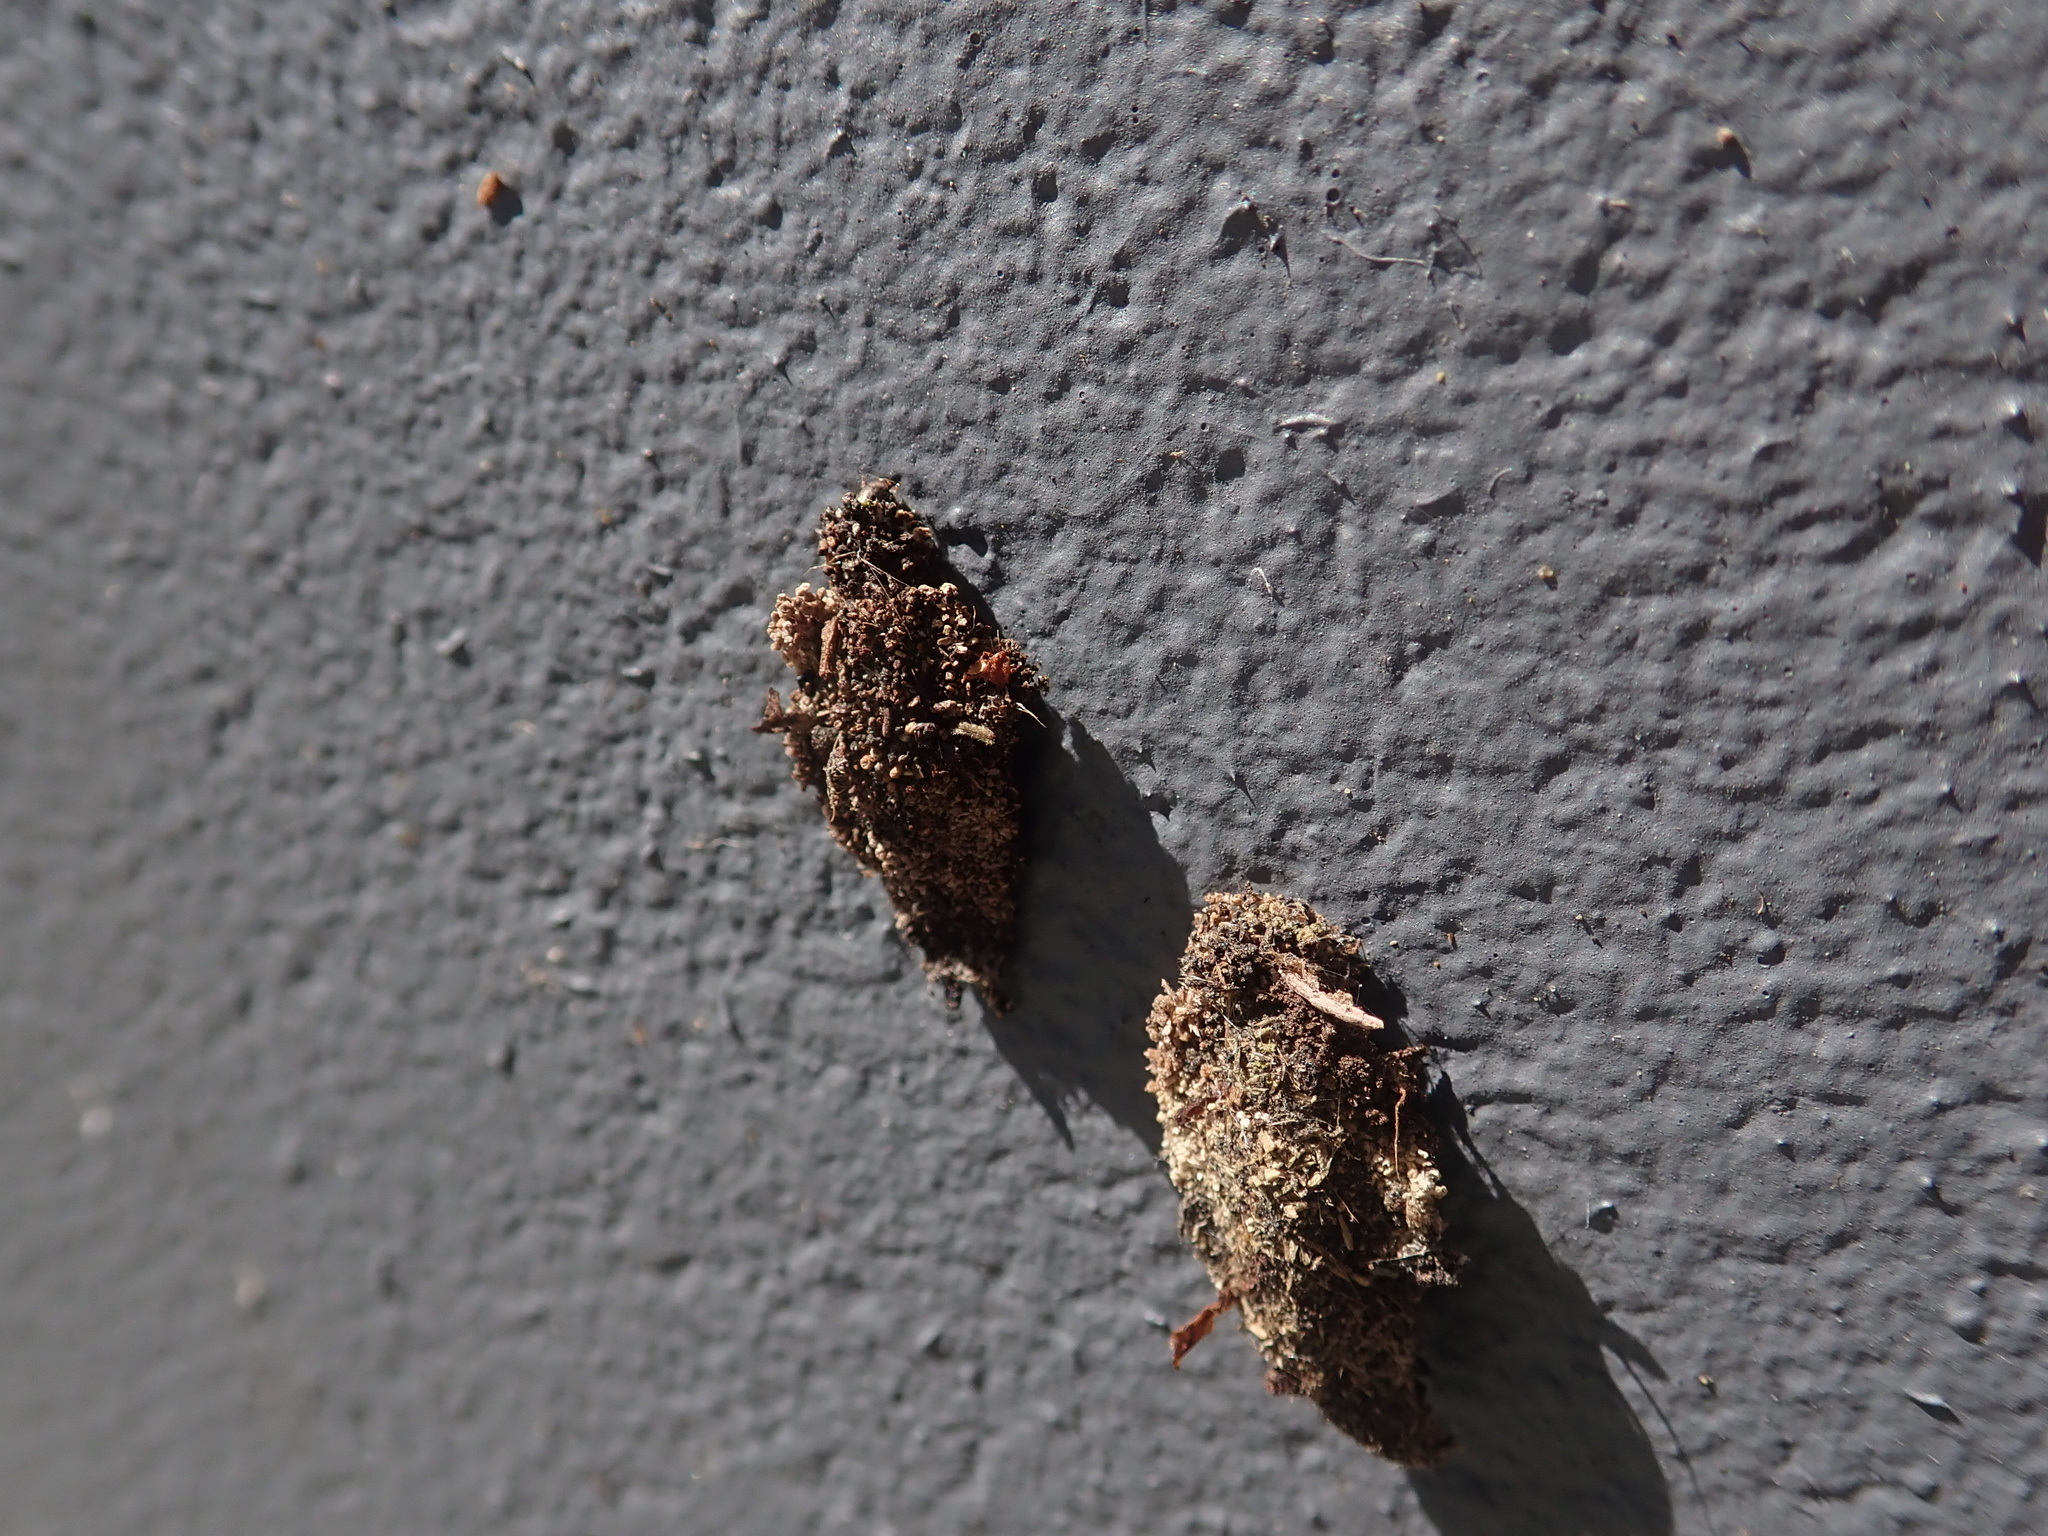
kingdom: Animalia
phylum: Arthropoda
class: Insecta
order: Lepidoptera
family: Psychidae
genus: Cebysa
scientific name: Cebysa leucotelus
